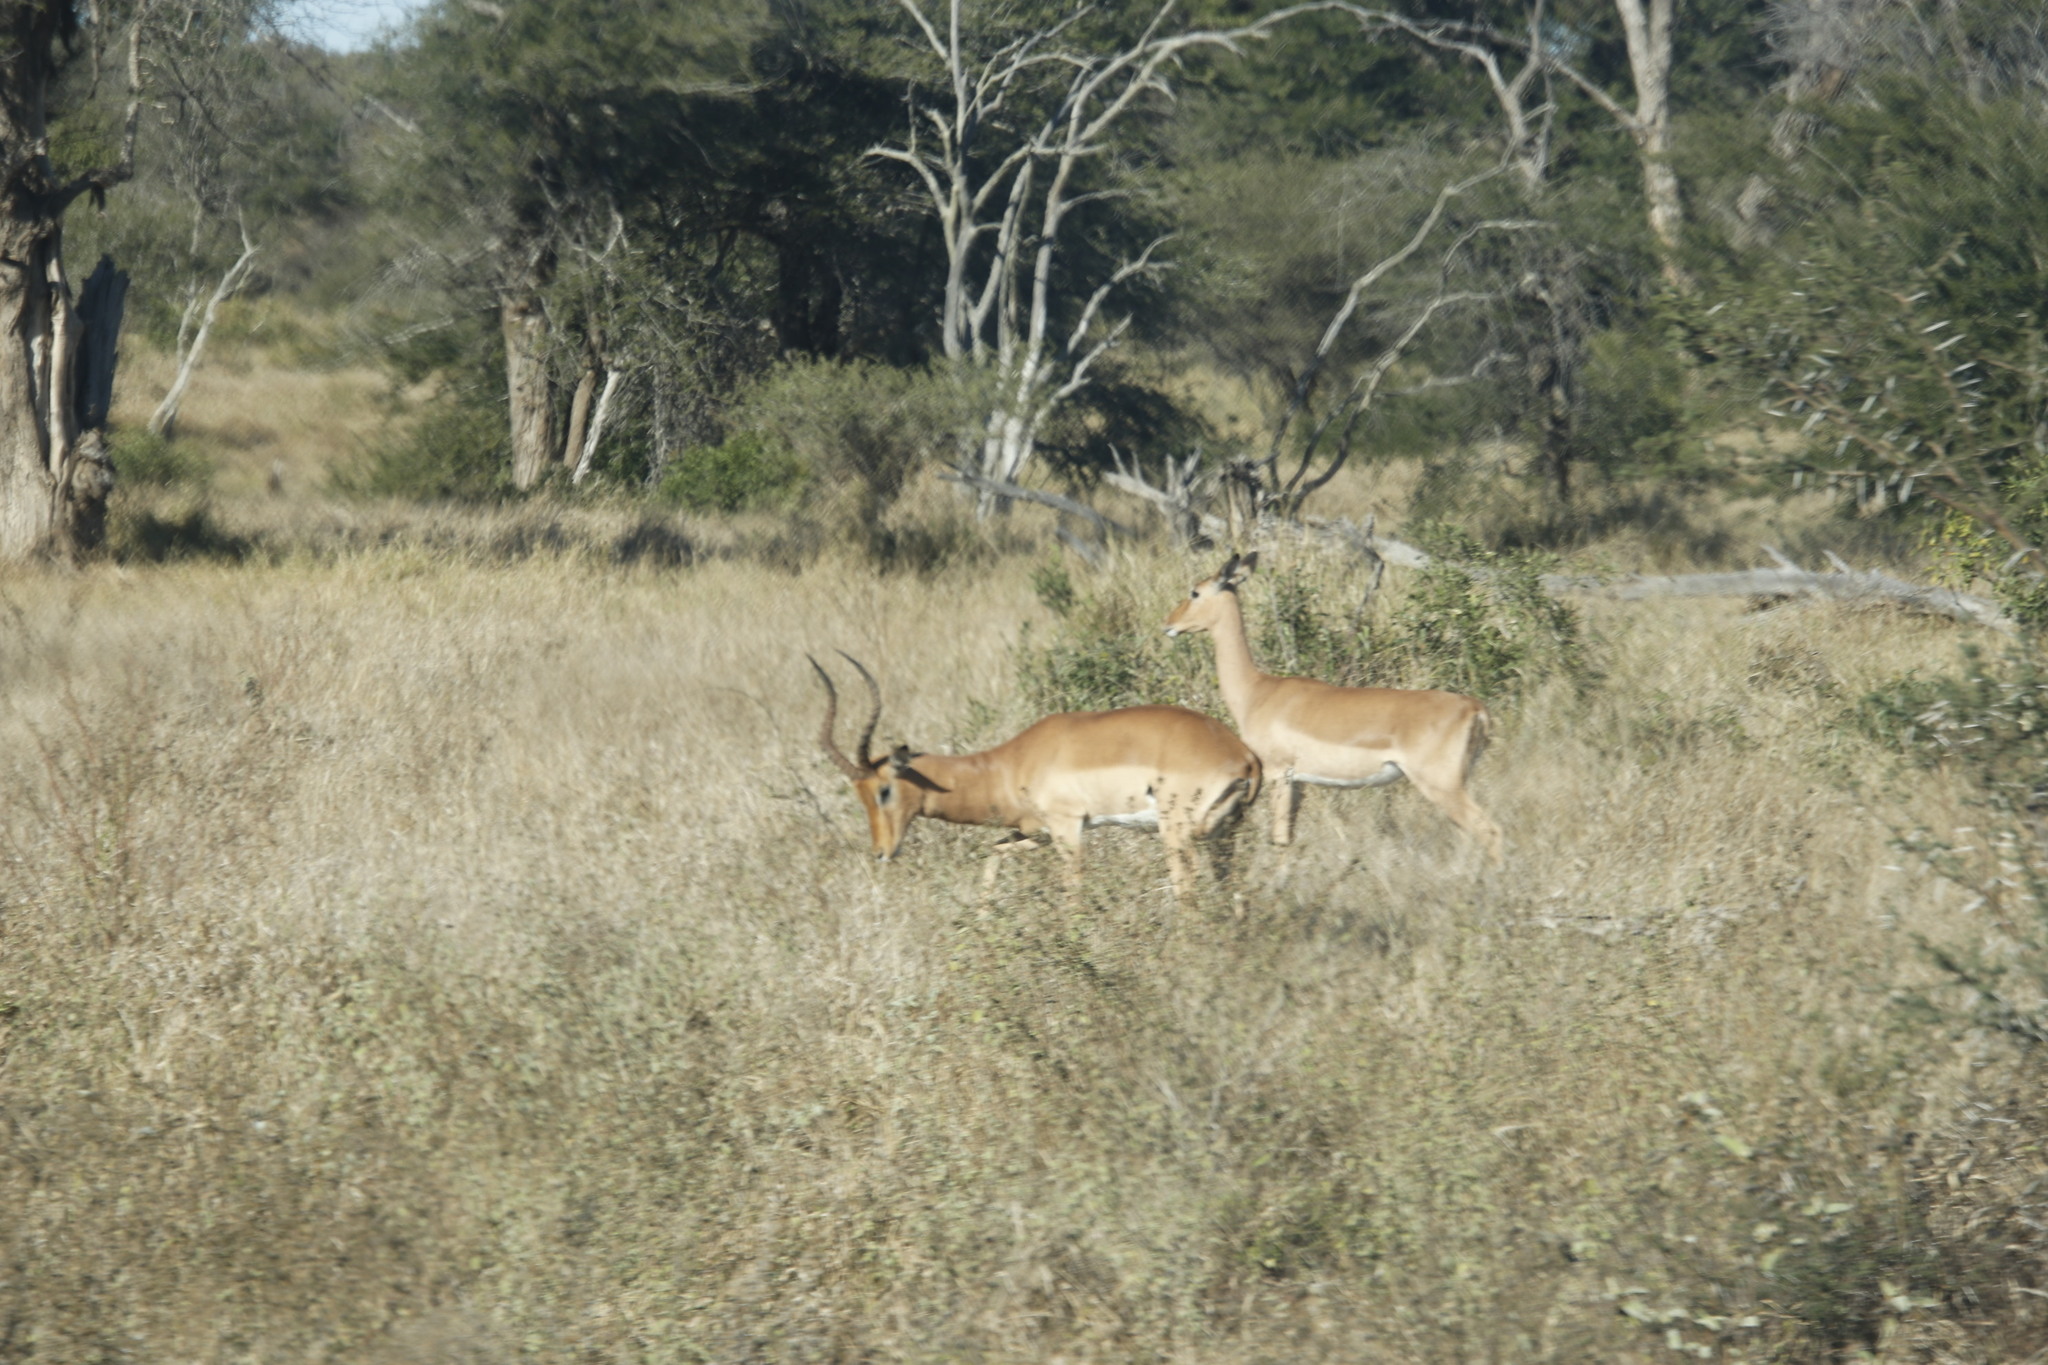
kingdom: Animalia
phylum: Chordata
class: Mammalia
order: Artiodactyla
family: Bovidae
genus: Aepyceros
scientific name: Aepyceros melampus
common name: Impala
